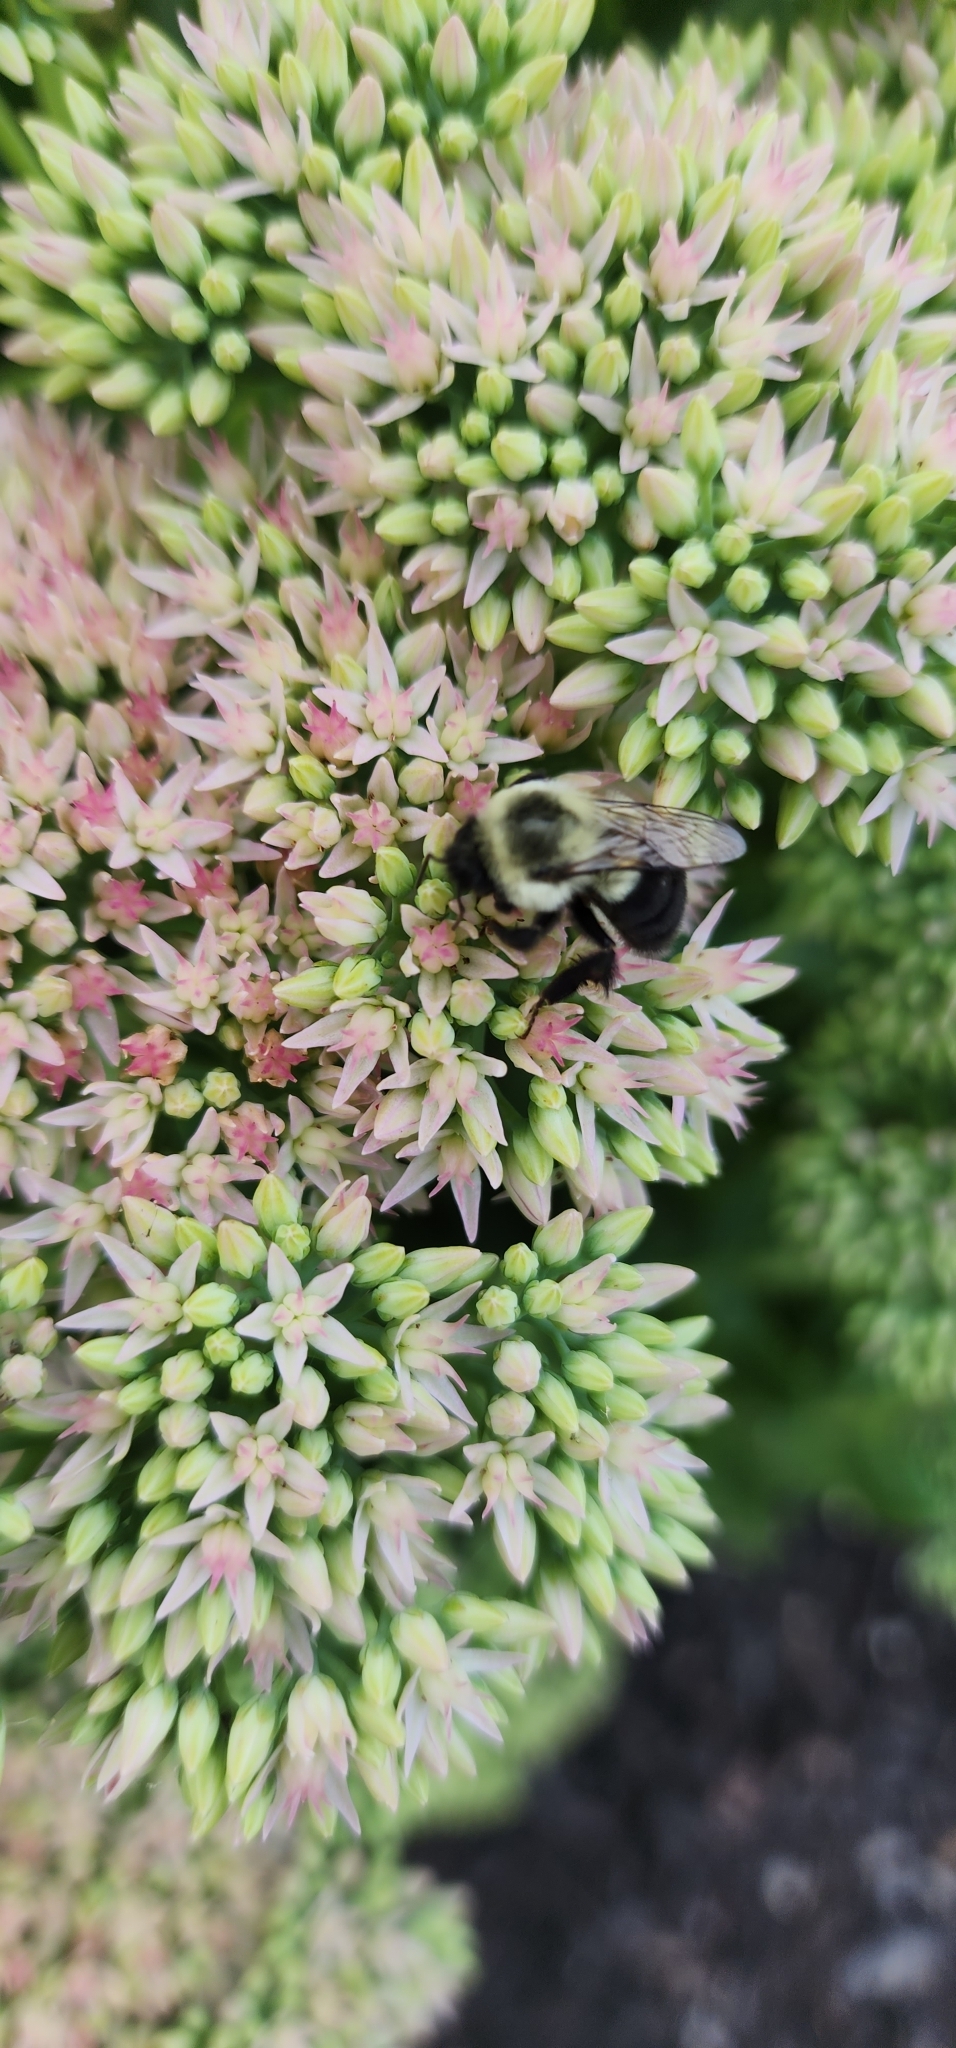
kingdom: Animalia
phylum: Arthropoda
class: Insecta
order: Hymenoptera
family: Apidae
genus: Bombus
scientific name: Bombus impatiens
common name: Common eastern bumble bee
